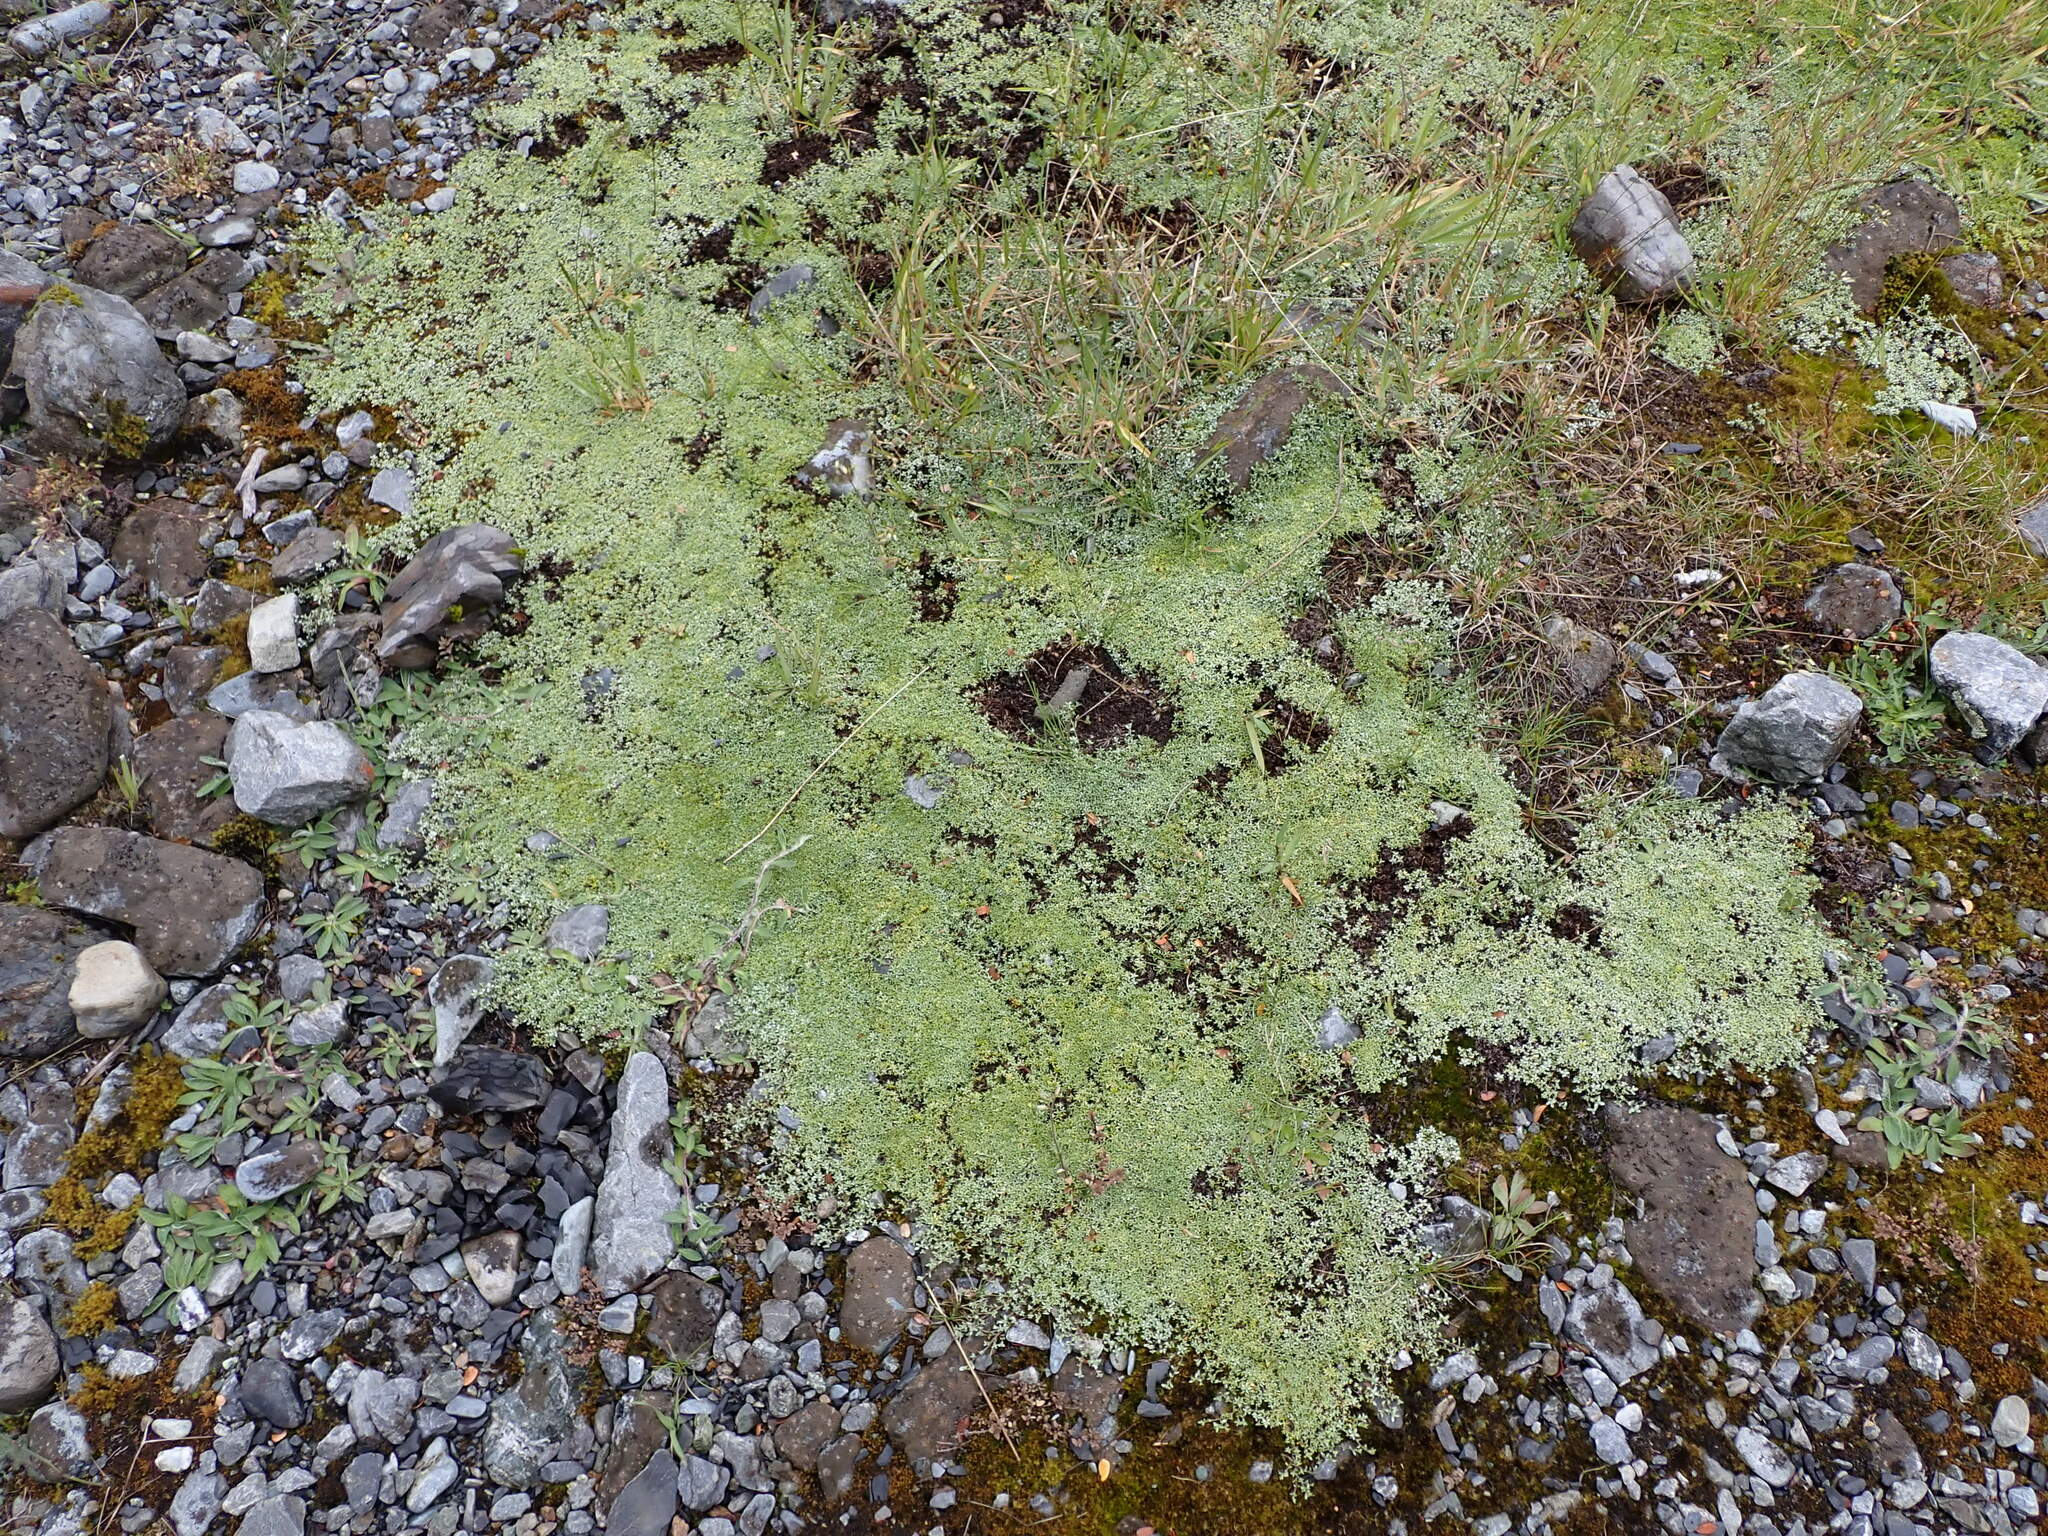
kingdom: Plantae
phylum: Tracheophyta
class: Magnoliopsida
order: Asterales
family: Asteraceae
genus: Raoulia
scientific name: Raoulia tenuicaulis
